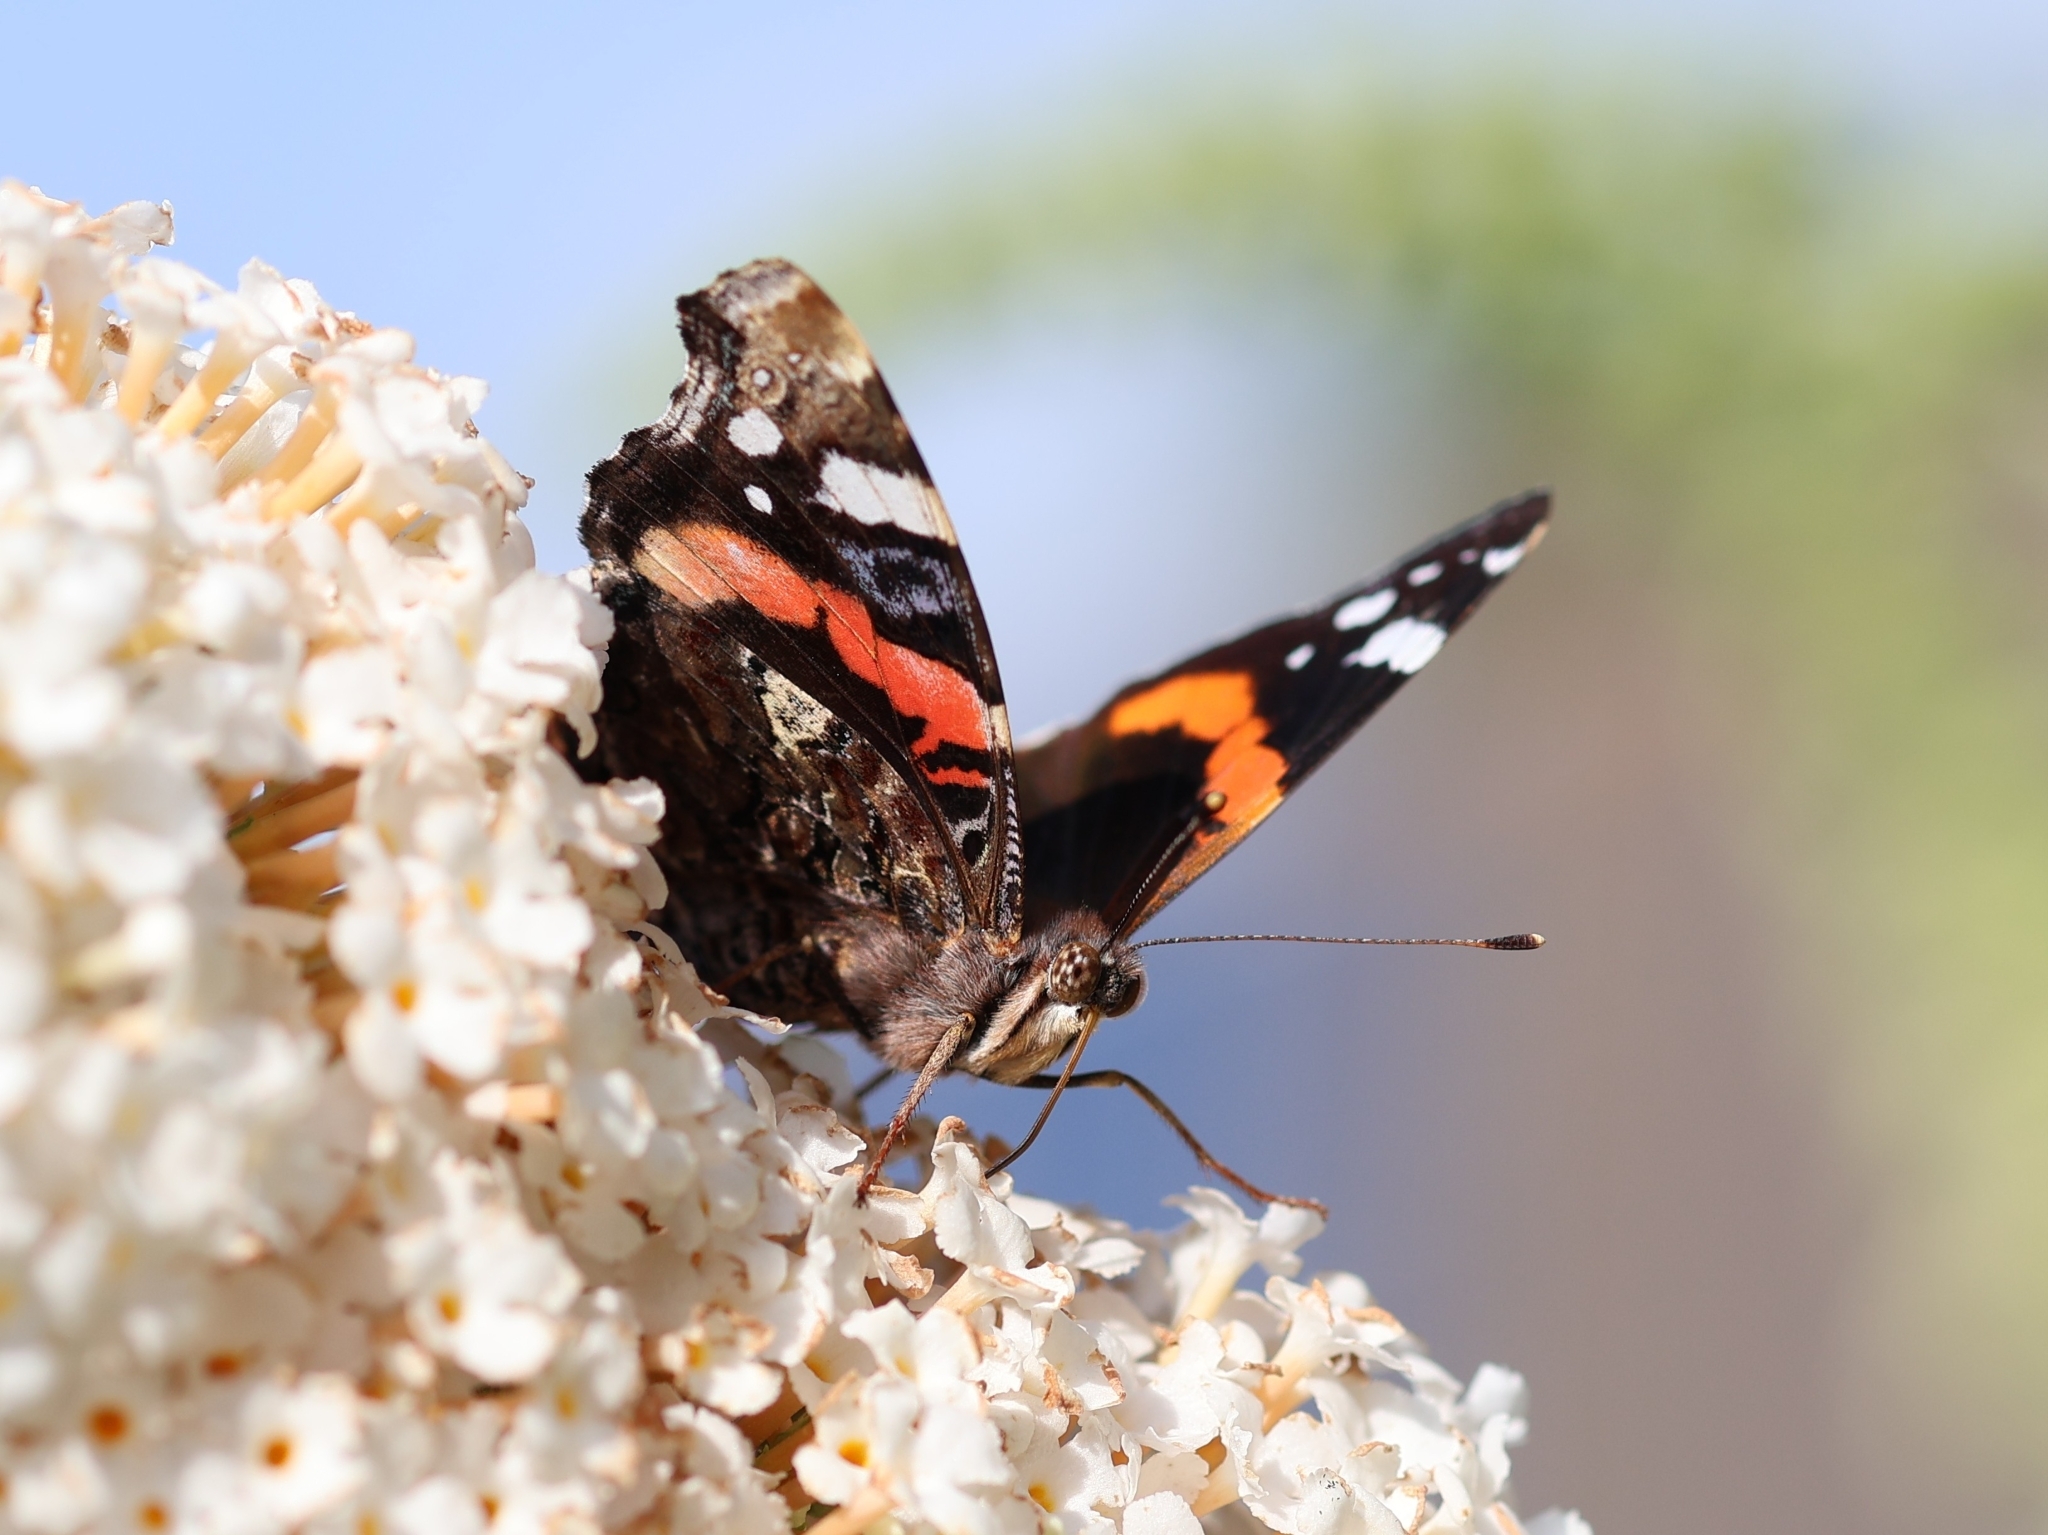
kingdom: Animalia
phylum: Arthropoda
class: Insecta
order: Lepidoptera
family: Nymphalidae
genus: Vanessa
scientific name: Vanessa atalanta
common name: Red admiral
